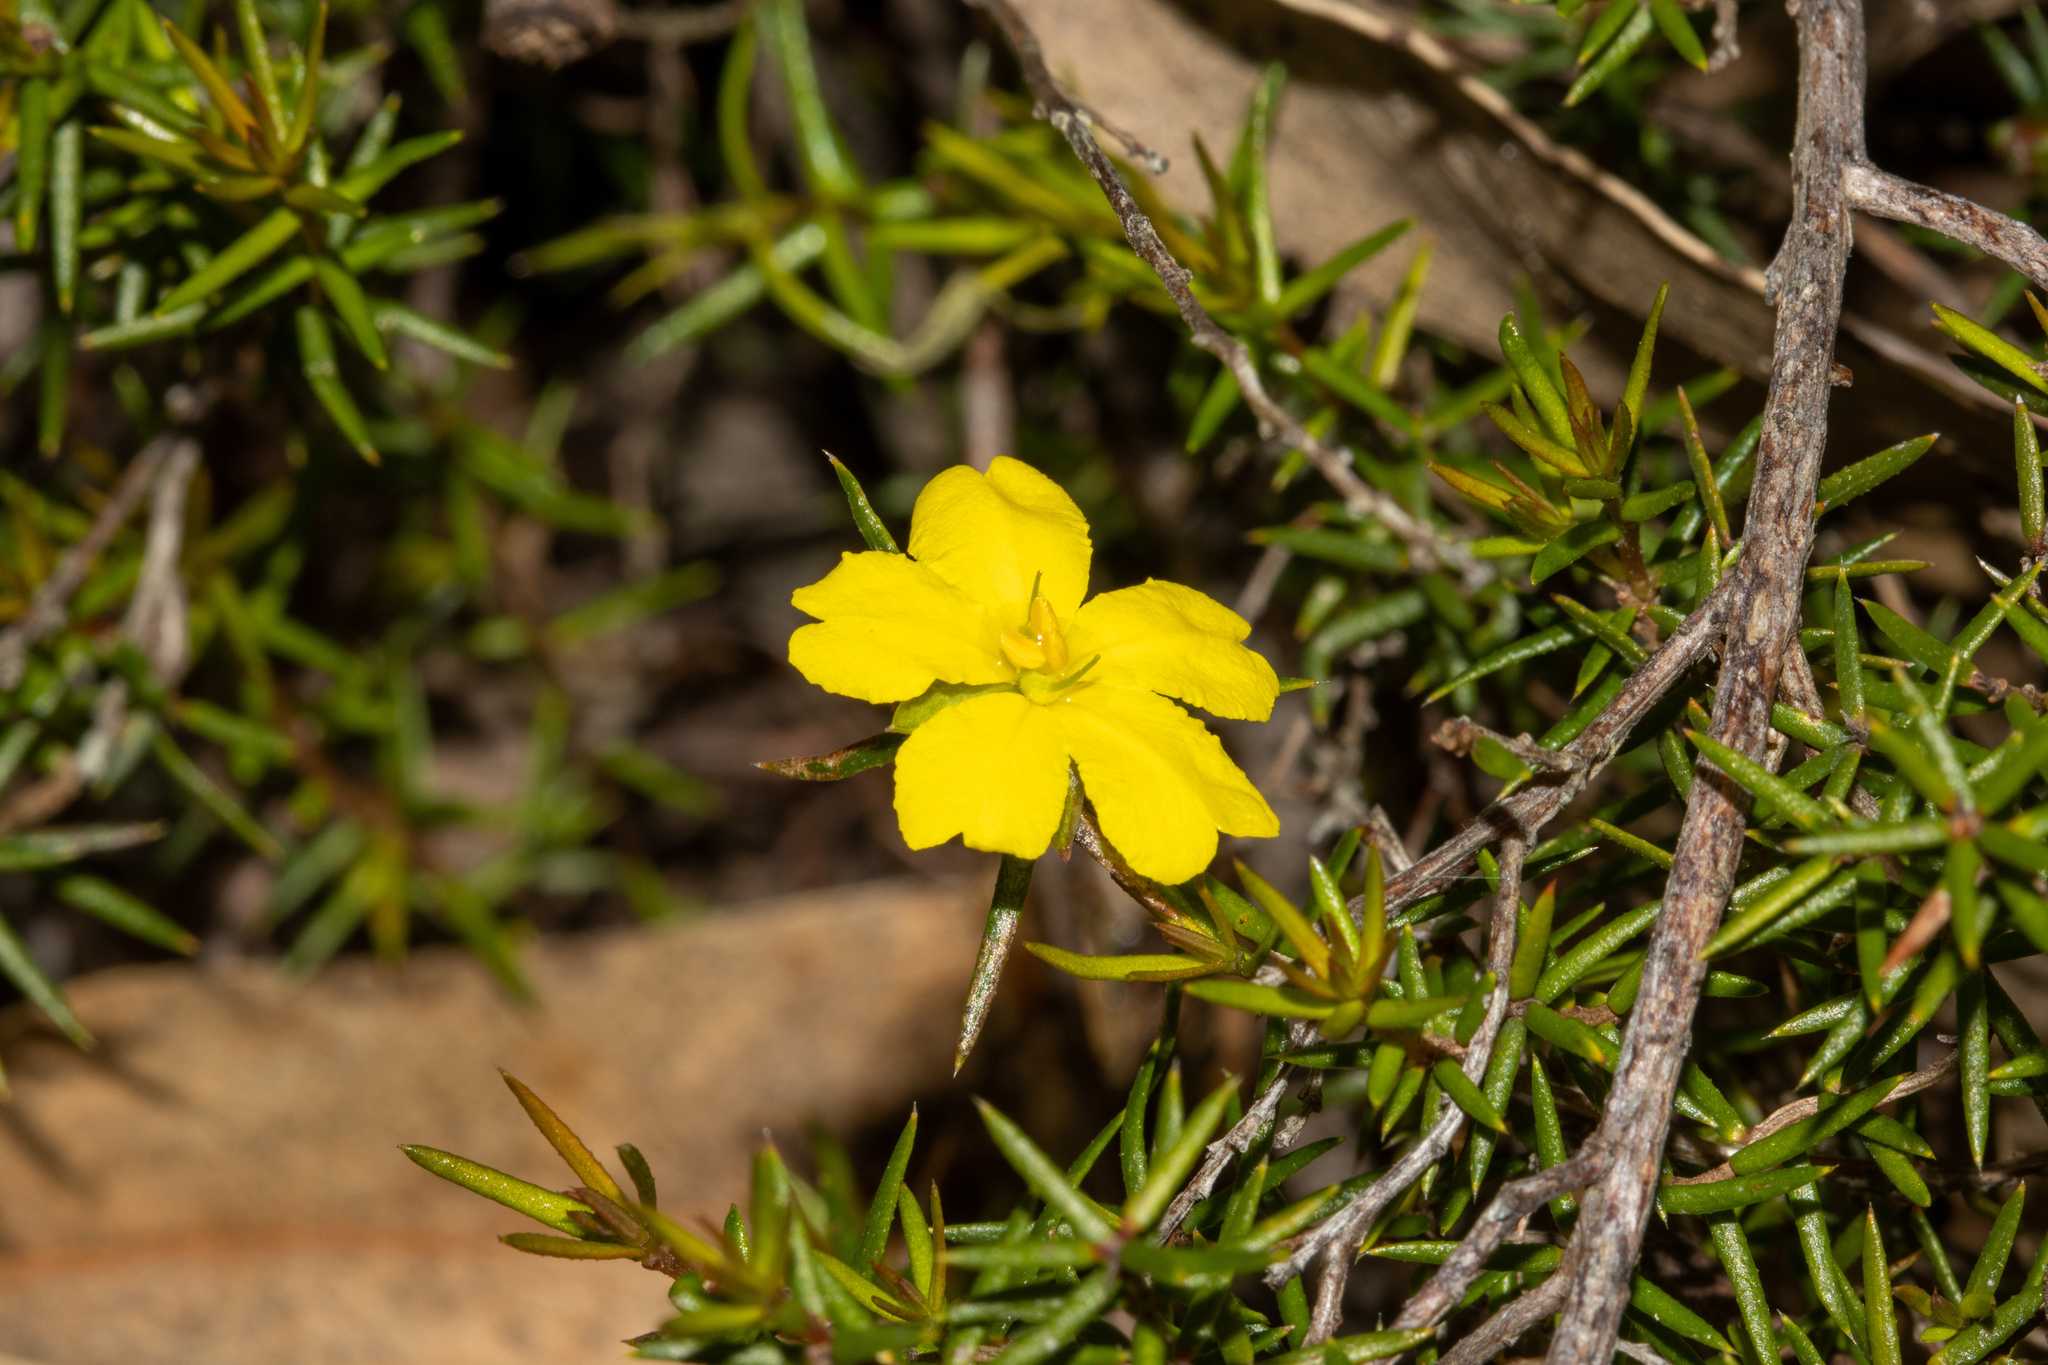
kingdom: Plantae
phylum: Tracheophyta
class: Magnoliopsida
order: Dilleniales
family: Dilleniaceae
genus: Hibbertia
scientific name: Hibbertia exutiacies
